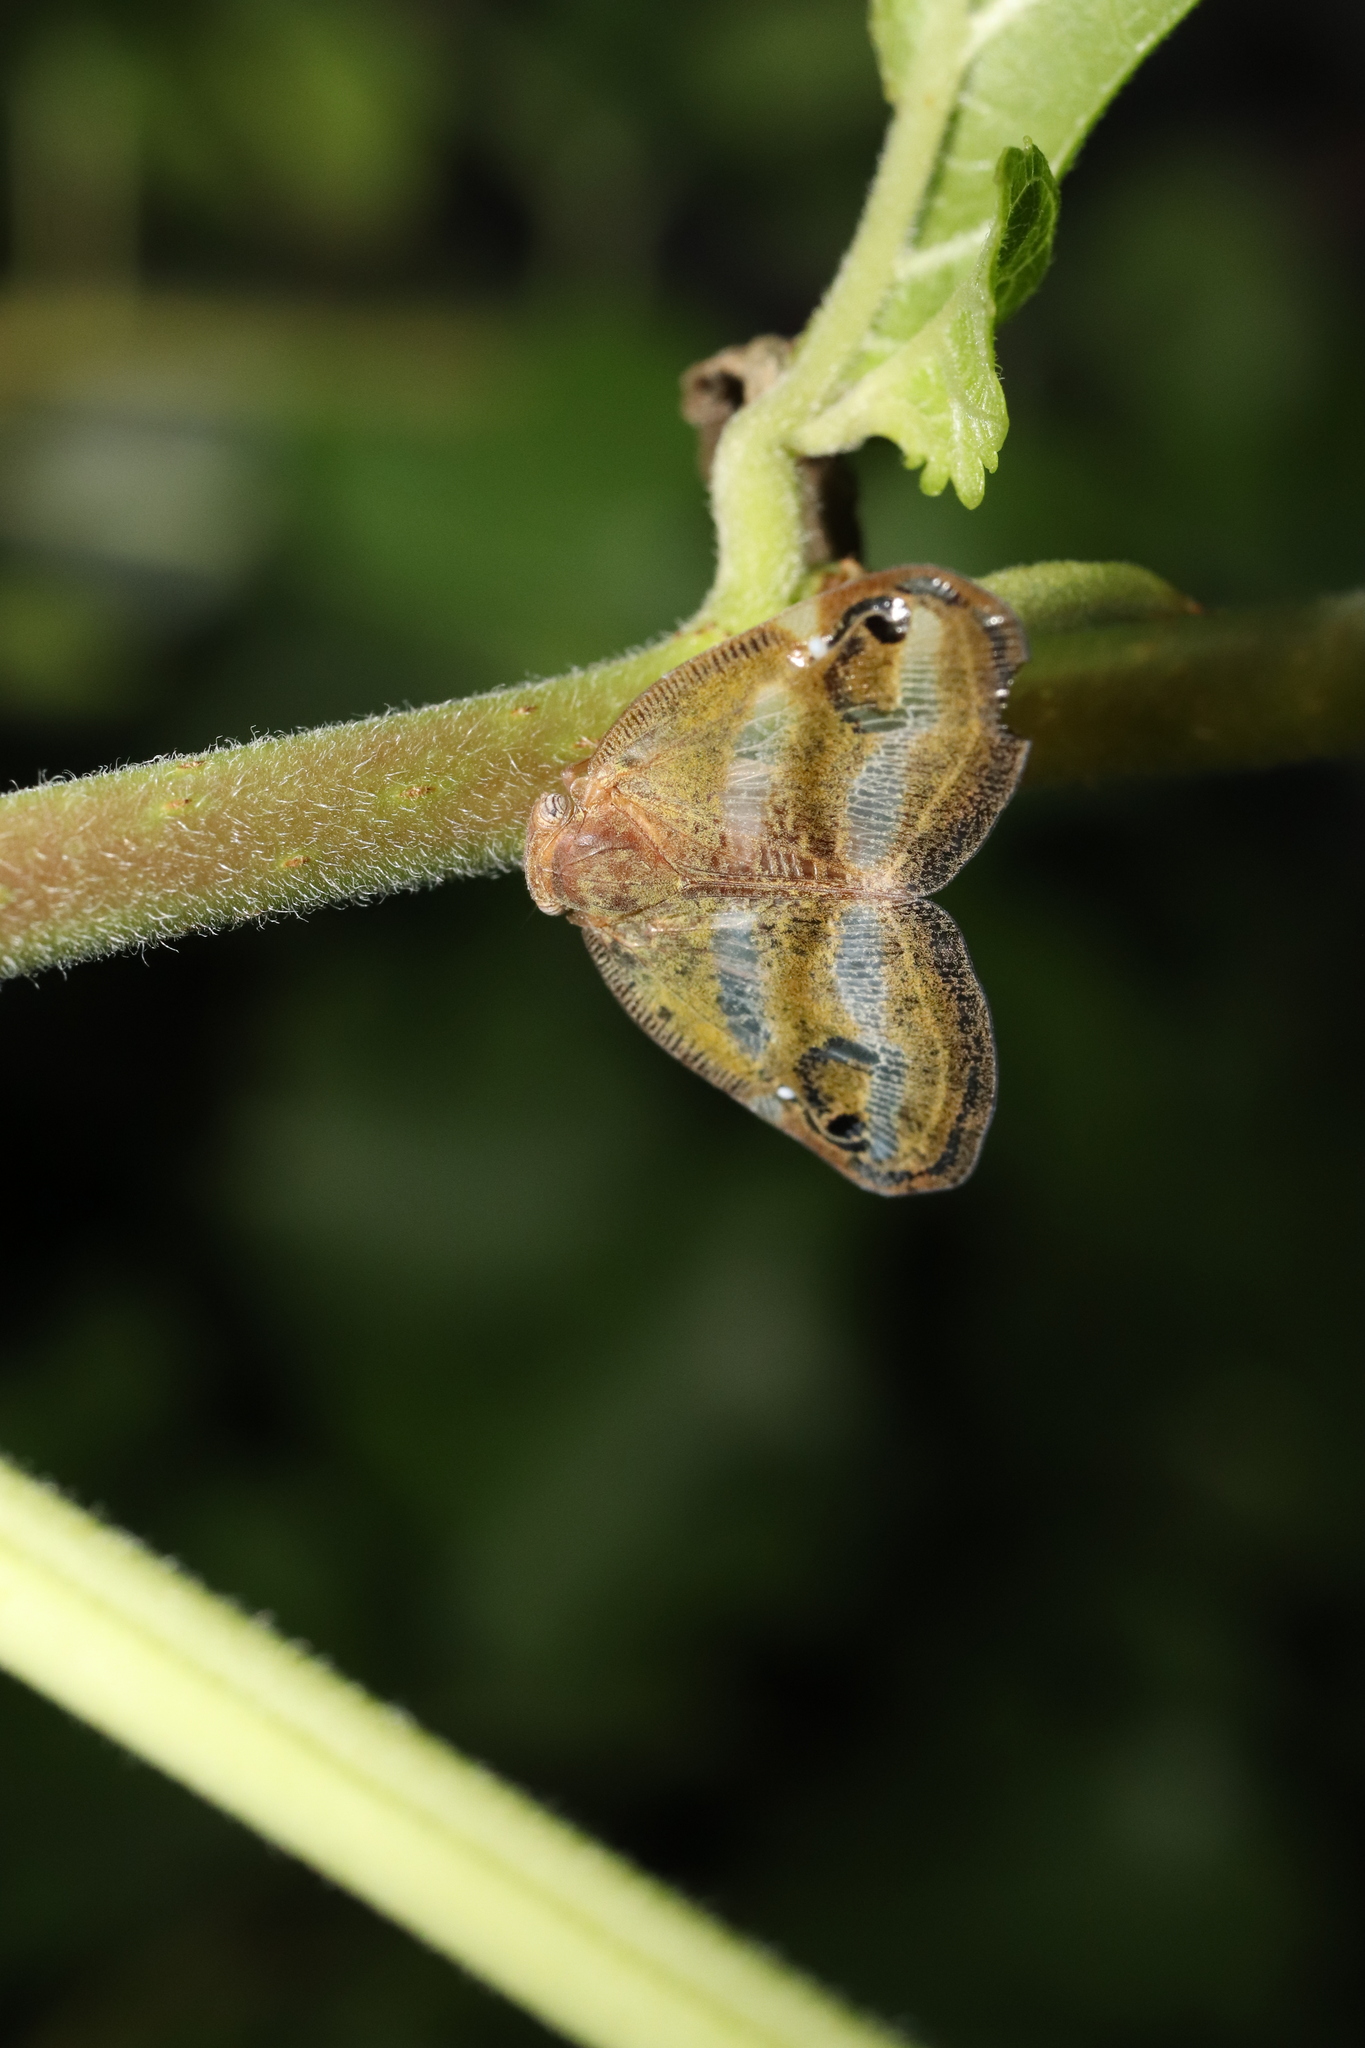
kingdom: Animalia
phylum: Arthropoda
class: Insecta
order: Hemiptera
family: Ricaniidae
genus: Orosanga
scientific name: Orosanga japonica
